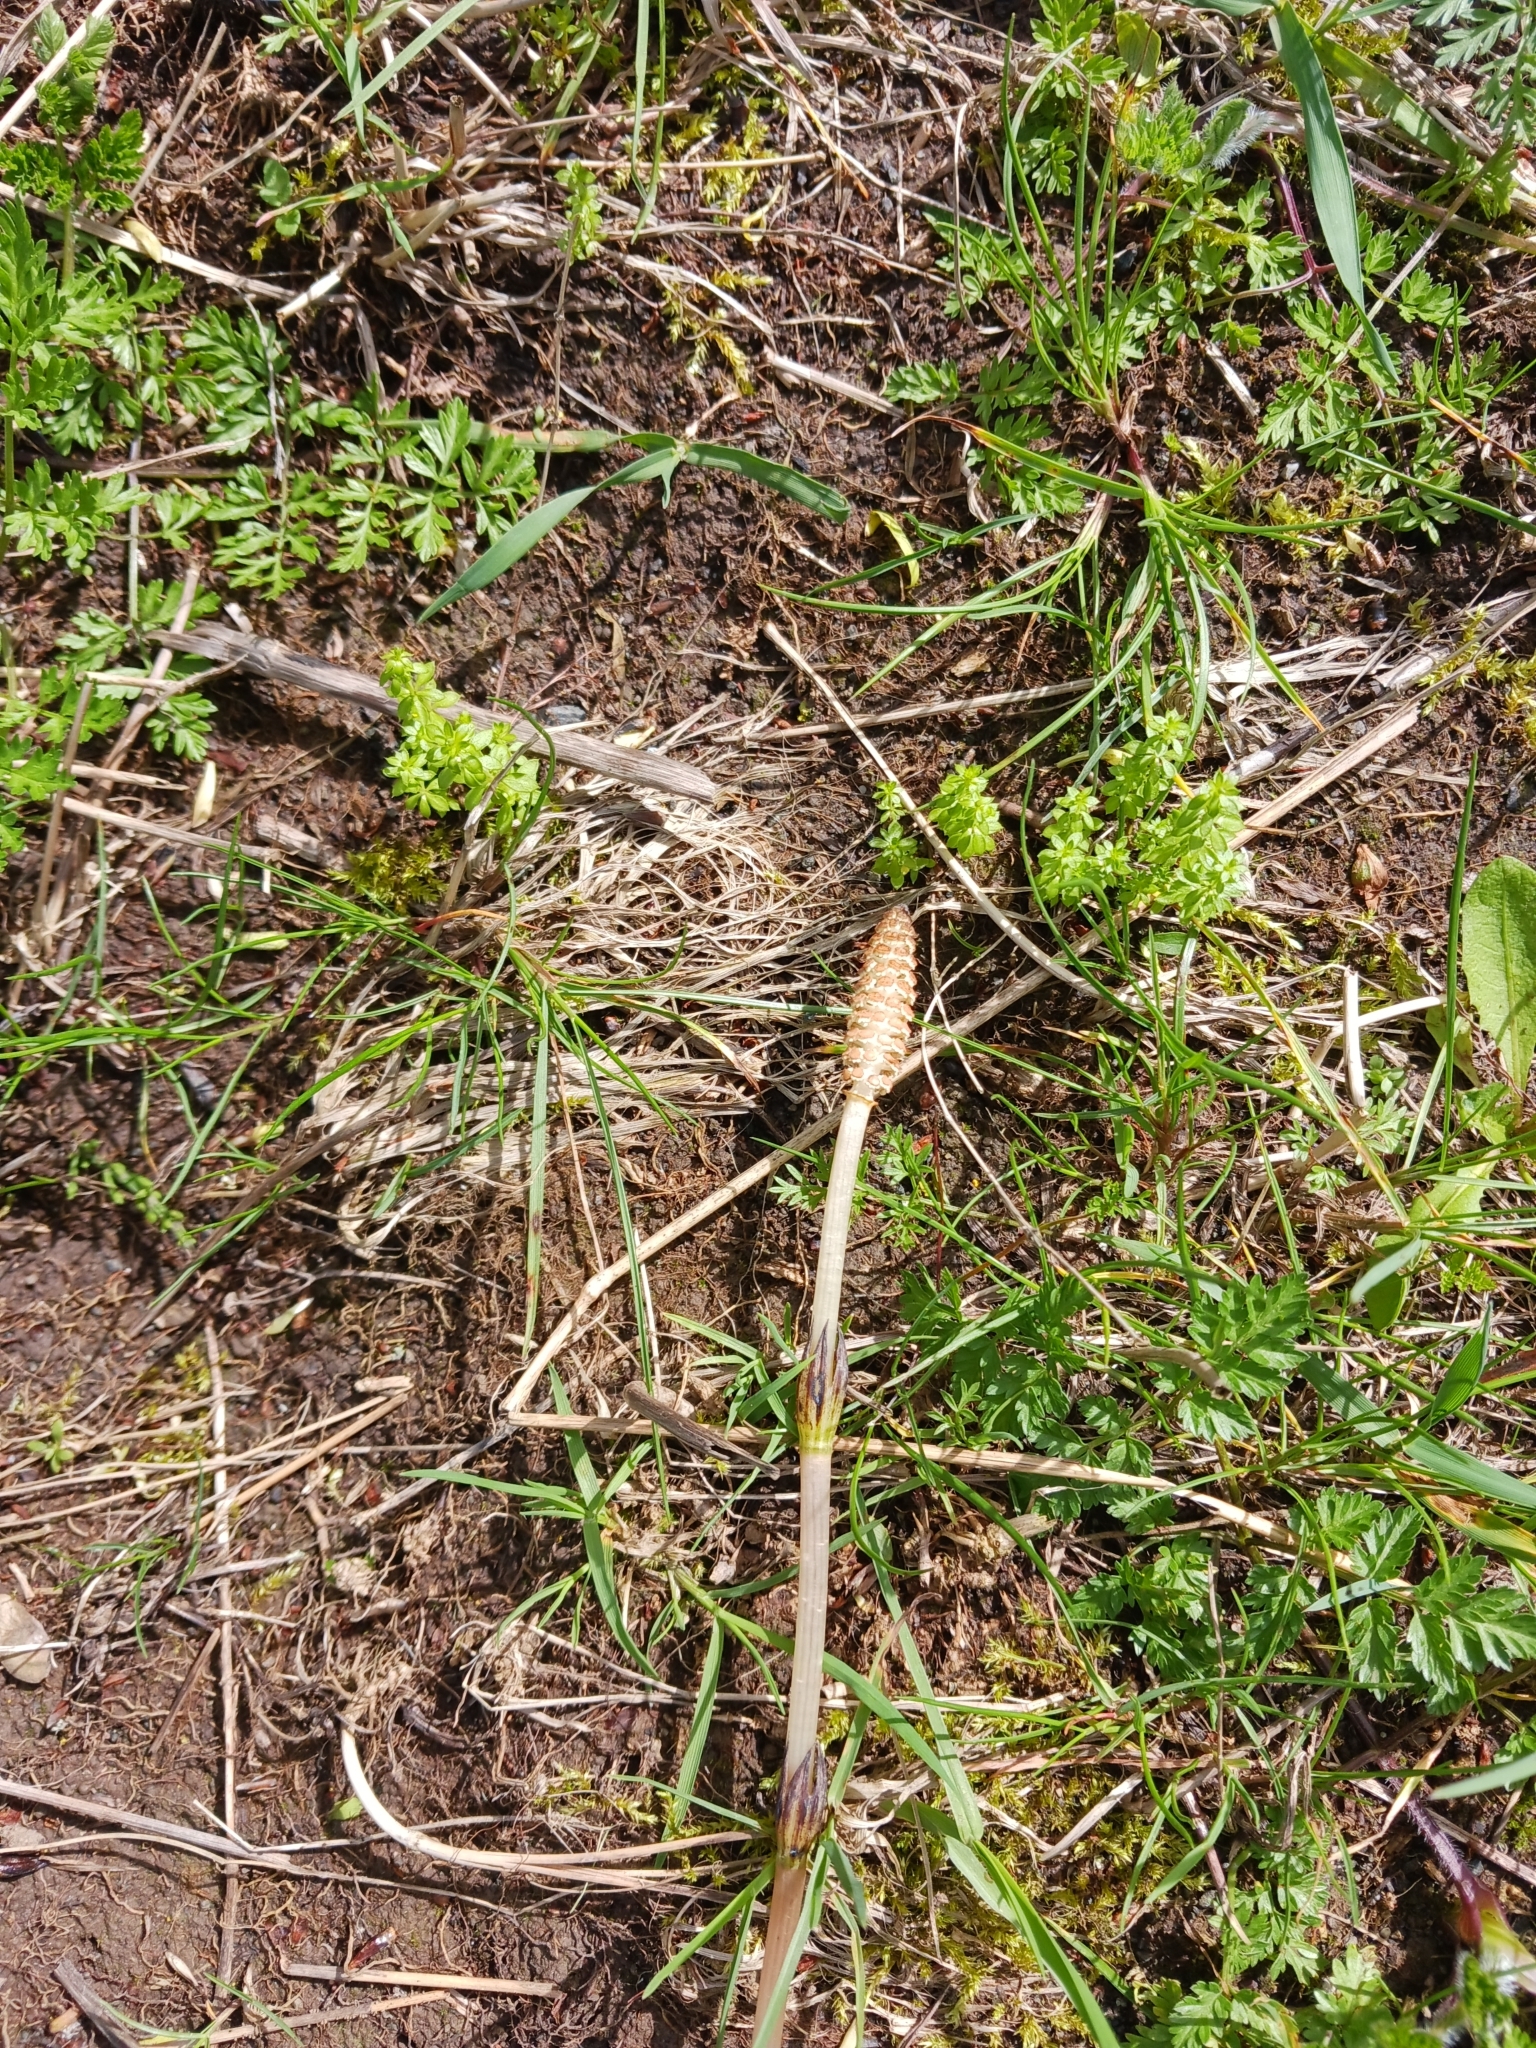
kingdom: Plantae
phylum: Tracheophyta
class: Polypodiopsida
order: Equisetales
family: Equisetaceae
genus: Equisetum
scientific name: Equisetum arvense
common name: Field horsetail
